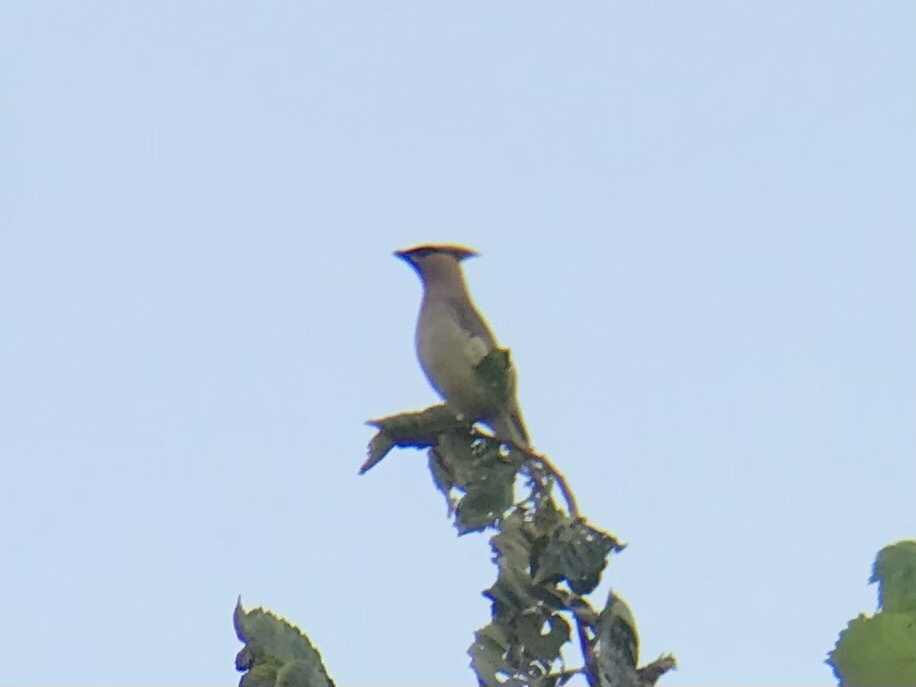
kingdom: Animalia
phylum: Chordata
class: Aves
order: Passeriformes
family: Bombycillidae
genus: Bombycilla
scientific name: Bombycilla cedrorum
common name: Cedar waxwing
